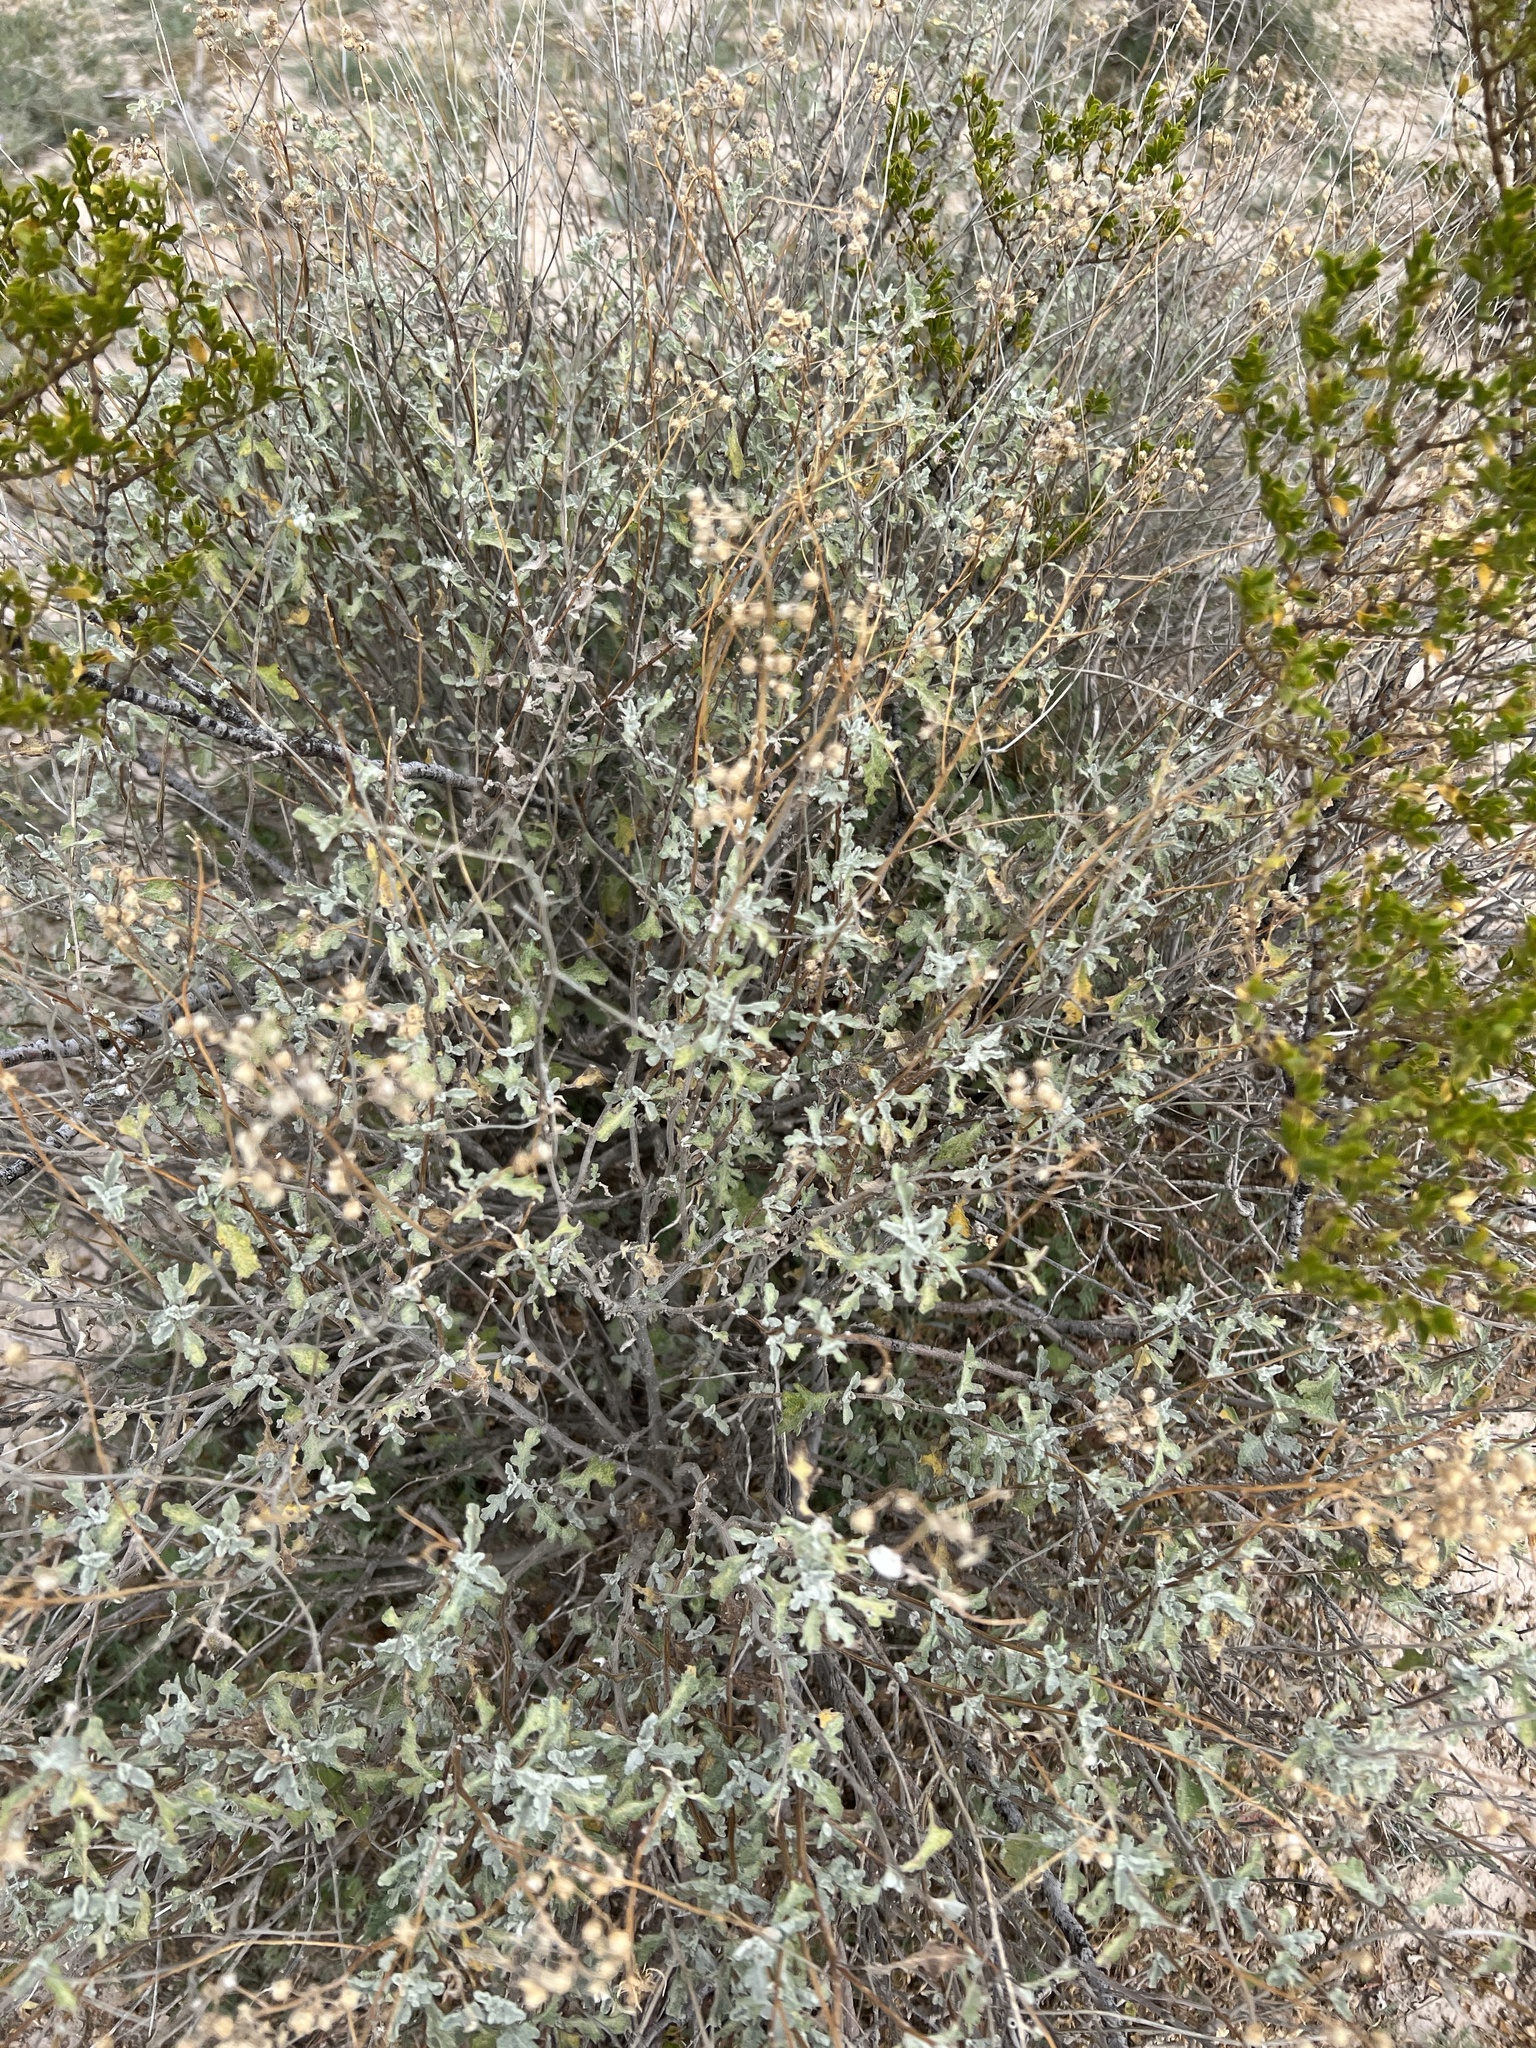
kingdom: Plantae
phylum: Tracheophyta
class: Magnoliopsida
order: Asterales
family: Asteraceae
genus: Parthenium
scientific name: Parthenium incanum
